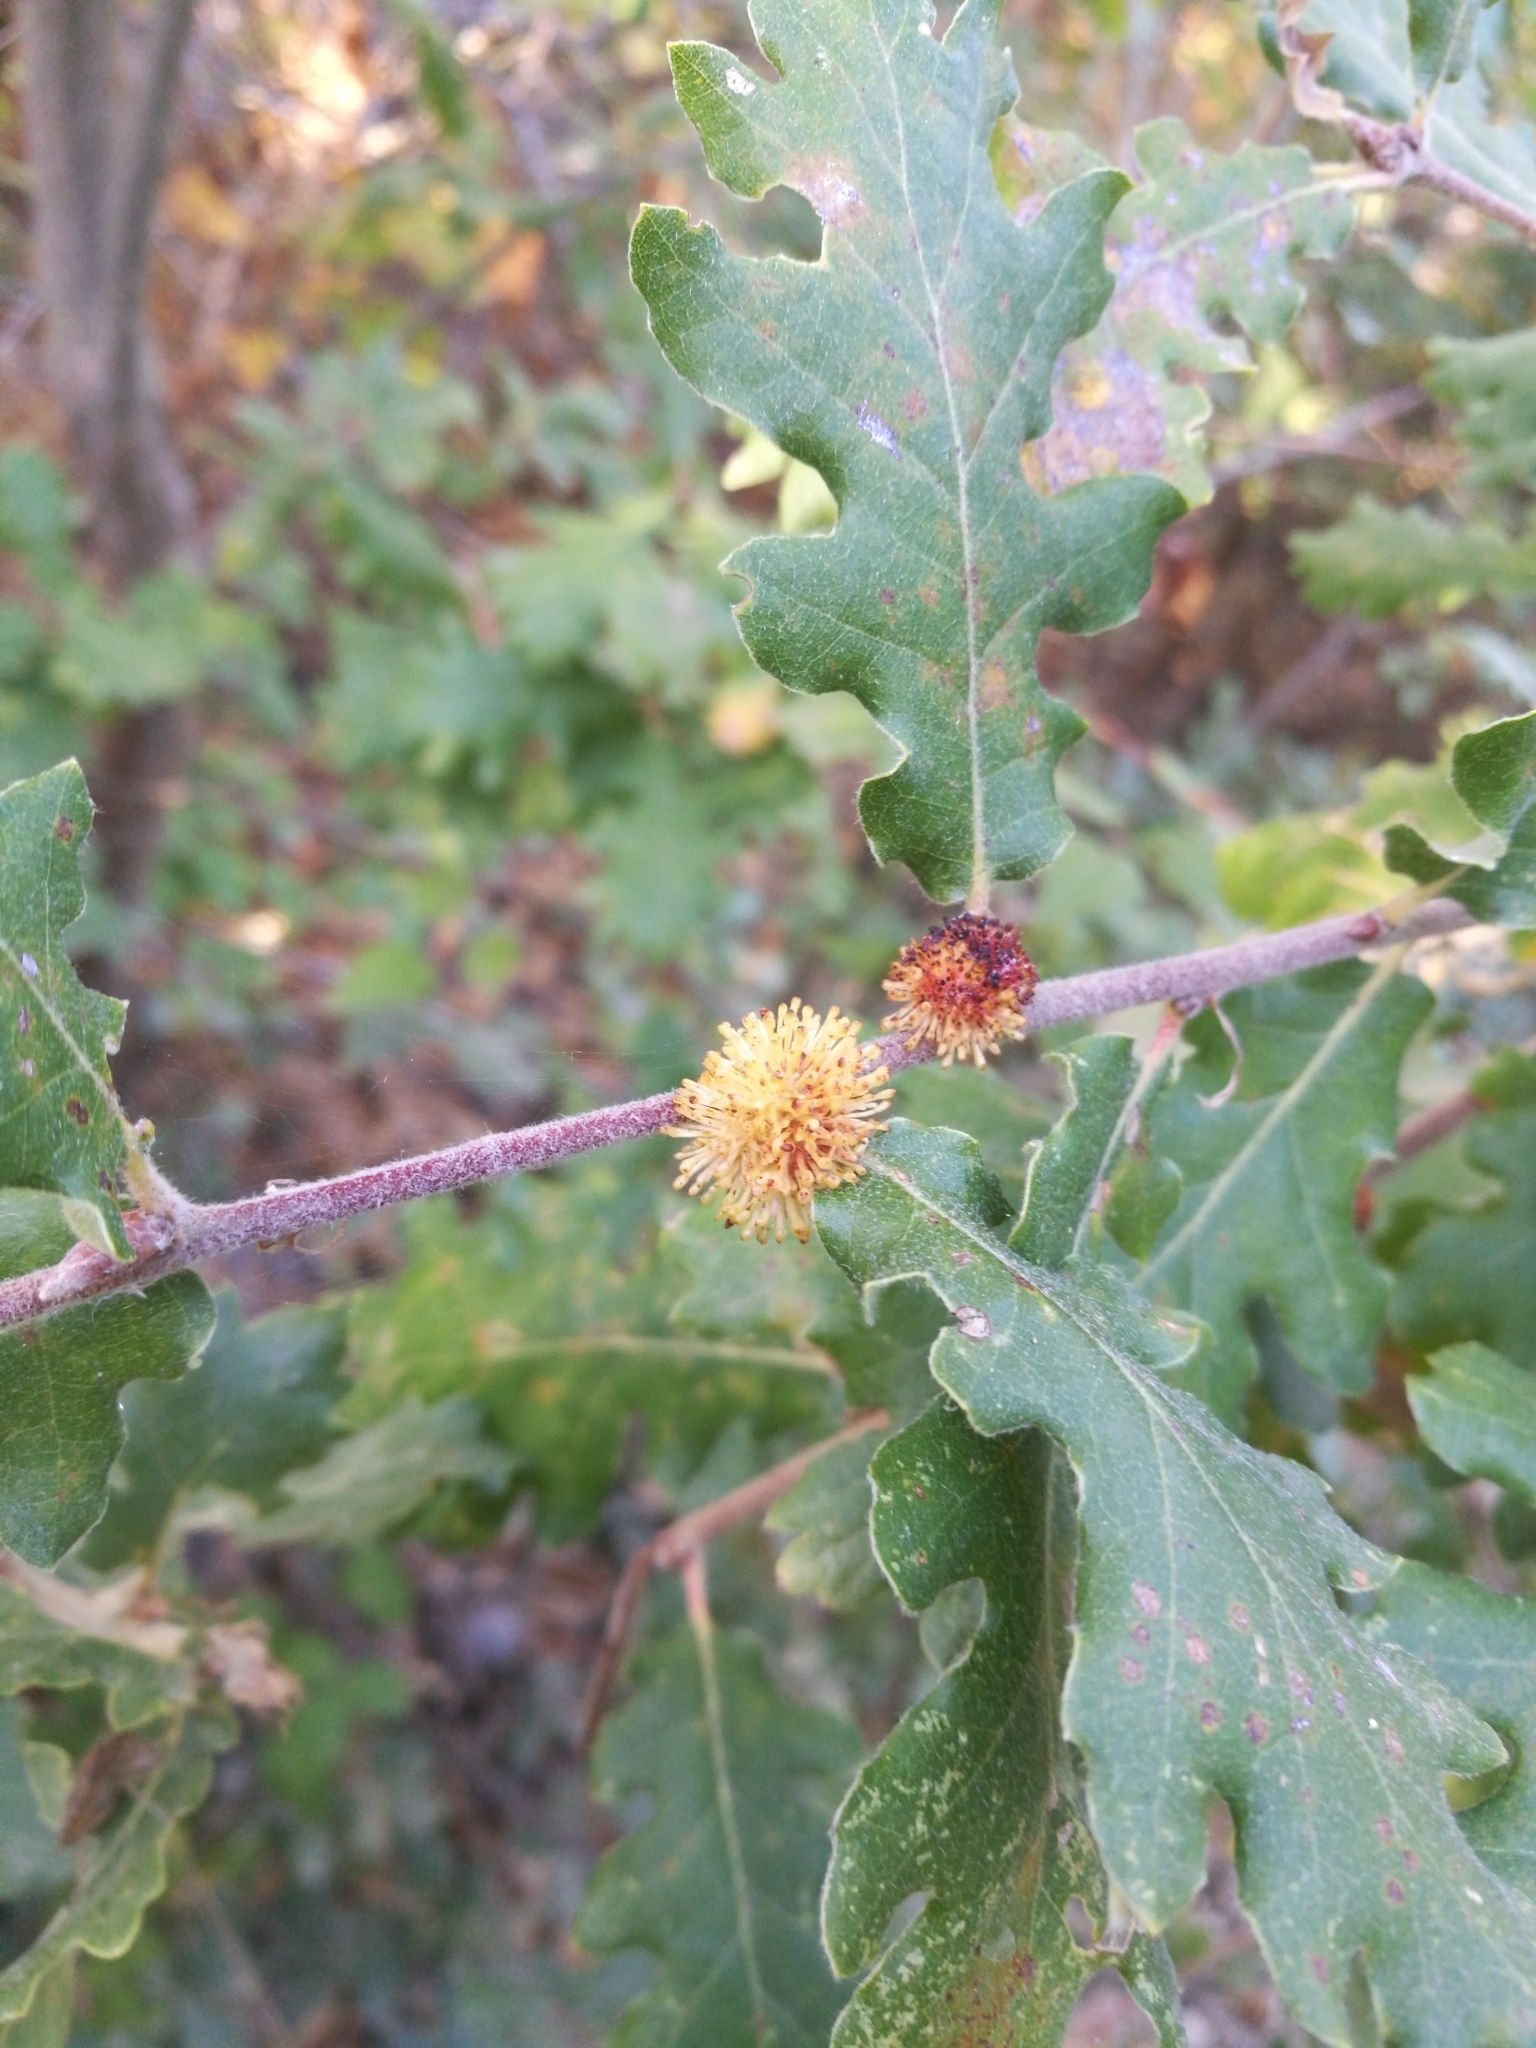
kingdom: Animalia
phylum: Arthropoda
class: Insecta
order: Hymenoptera
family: Cynipidae
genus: Andricus
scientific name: Andricus lucidus
